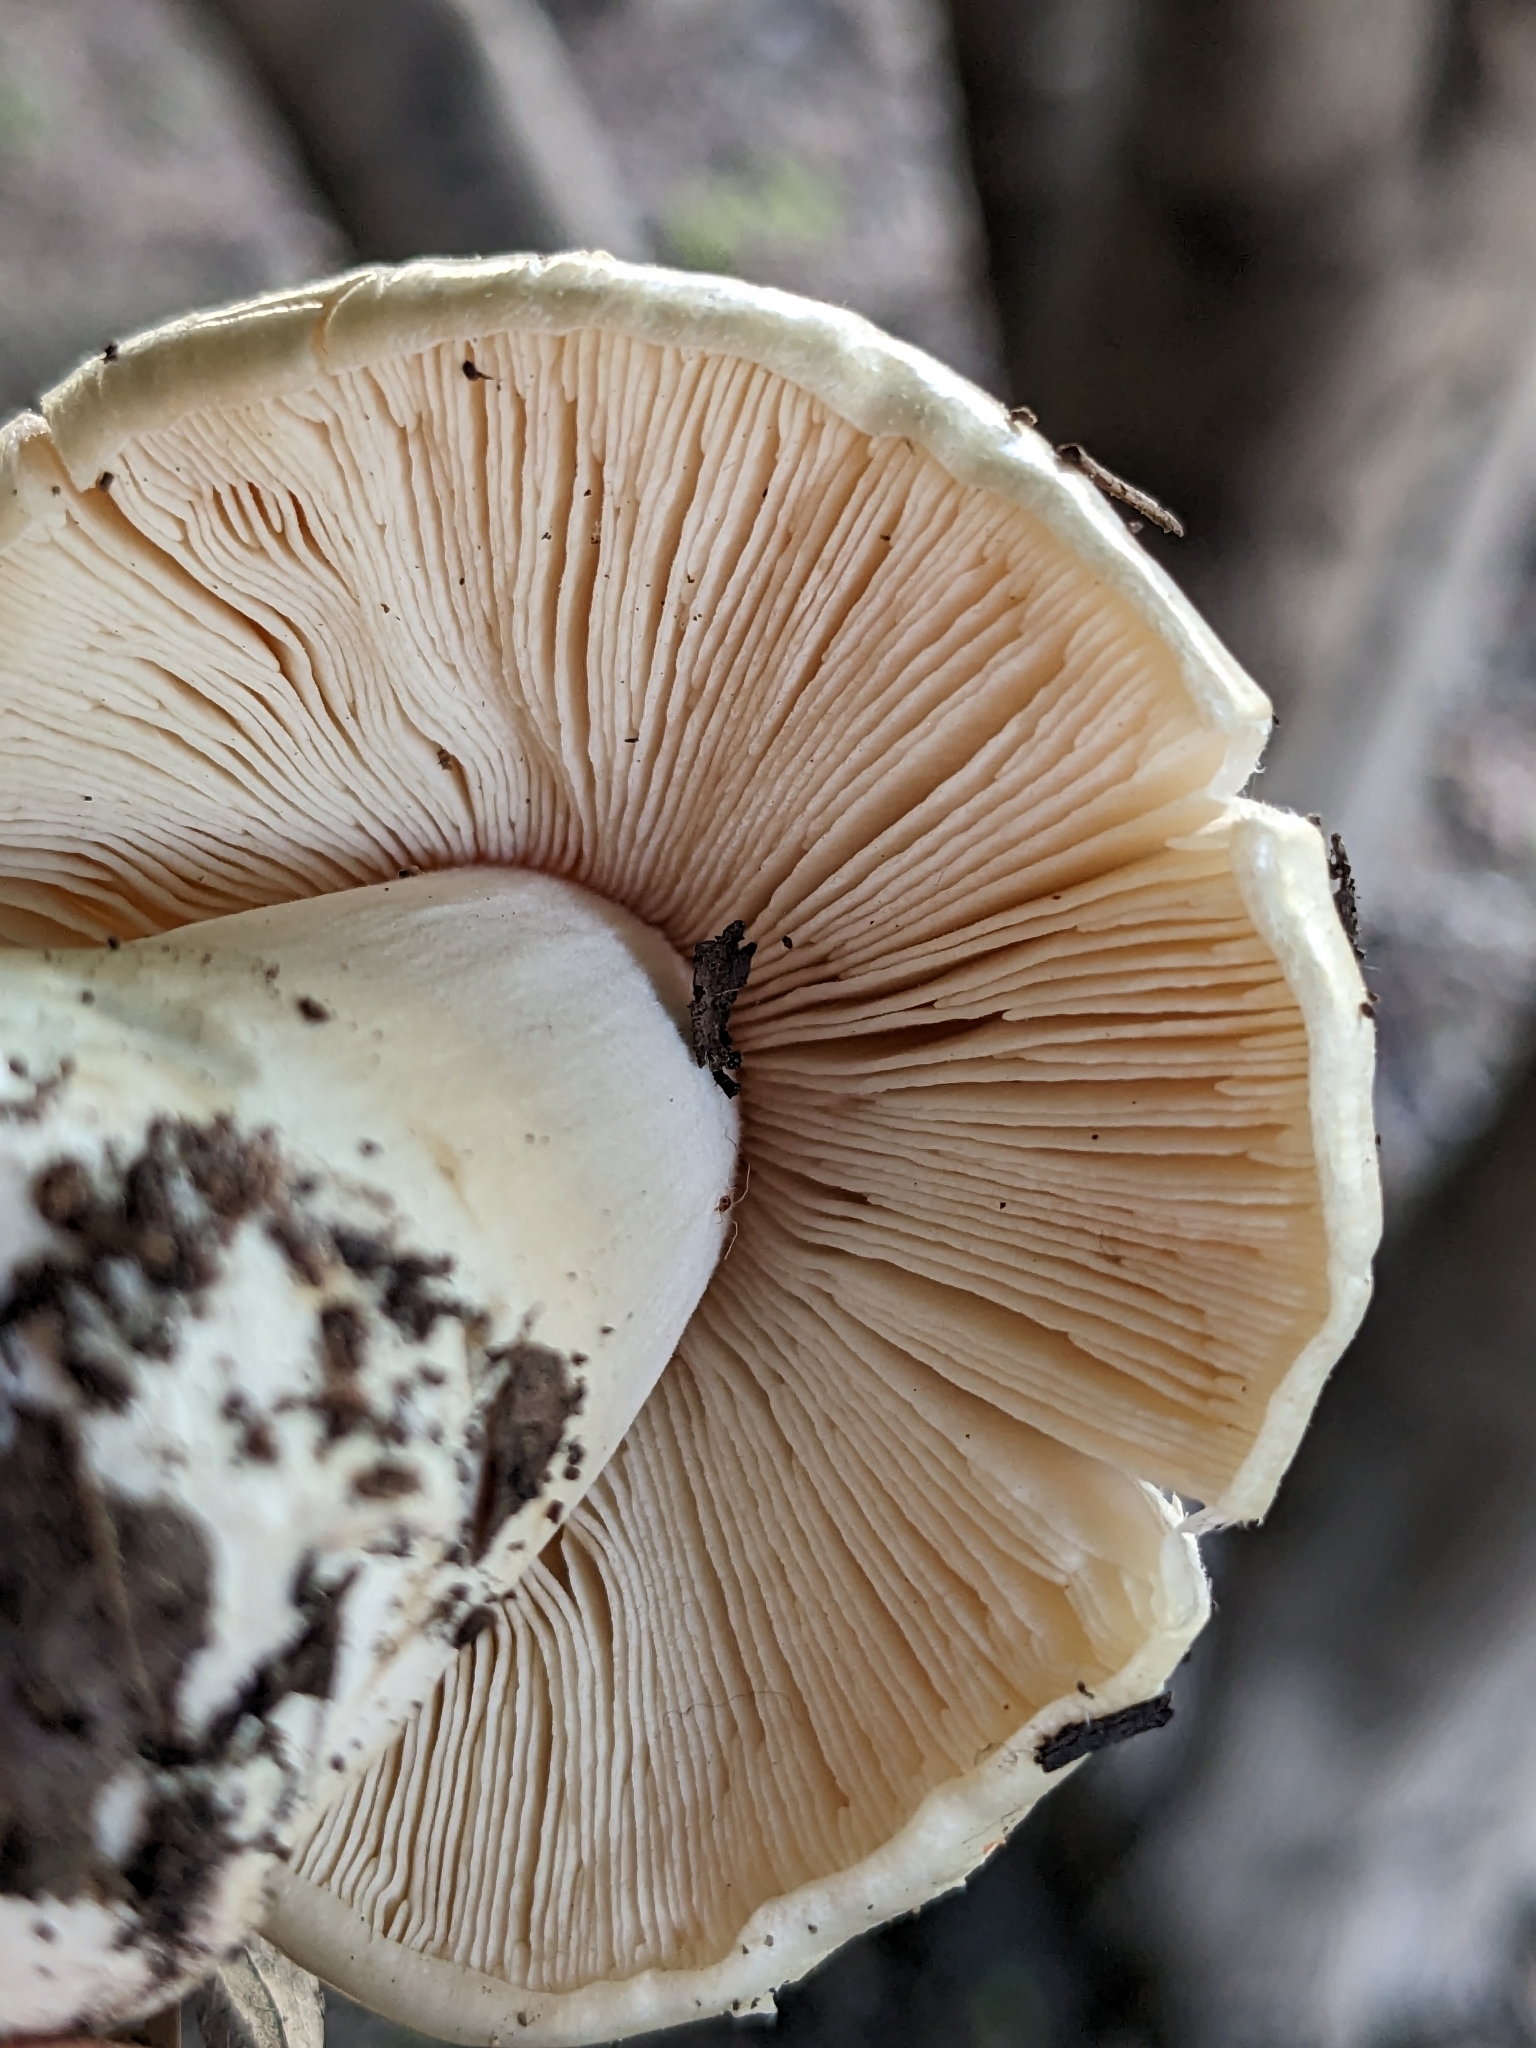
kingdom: Fungi
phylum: Basidiomycota
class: Agaricomycetes
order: Agaricales
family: Amanitaceae
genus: Amanita
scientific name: Amanita phalloides
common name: Death cap
